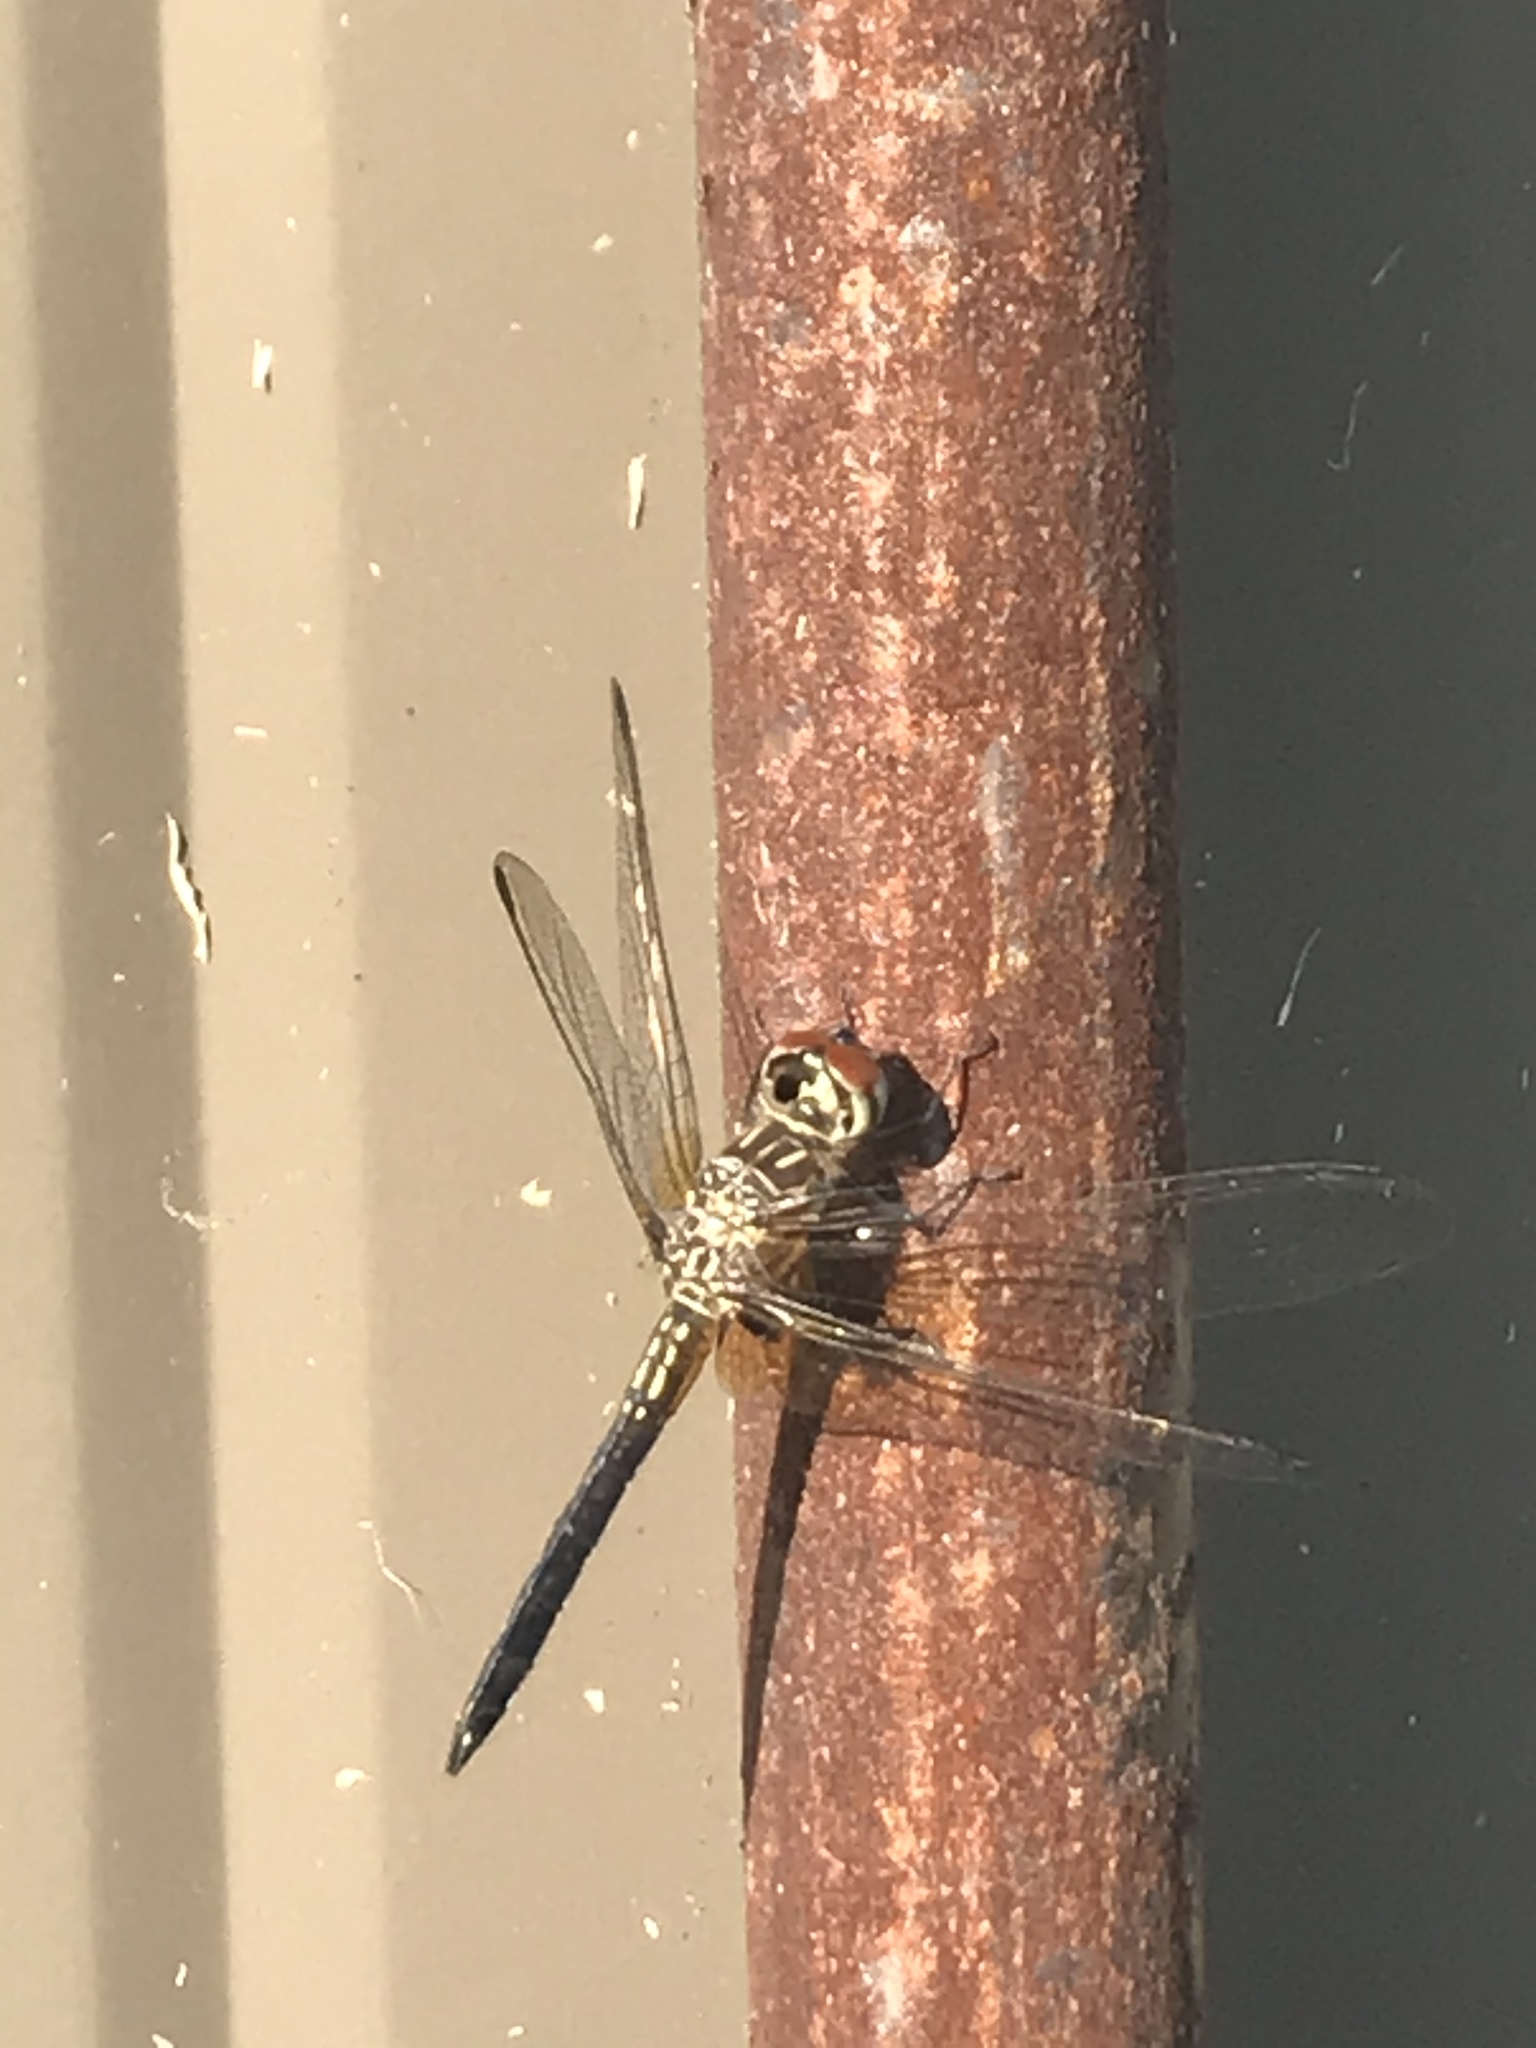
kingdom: Animalia
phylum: Arthropoda
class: Insecta
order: Odonata
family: Libellulidae
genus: Pachydiplax
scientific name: Pachydiplax longipennis
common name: Blue dasher
